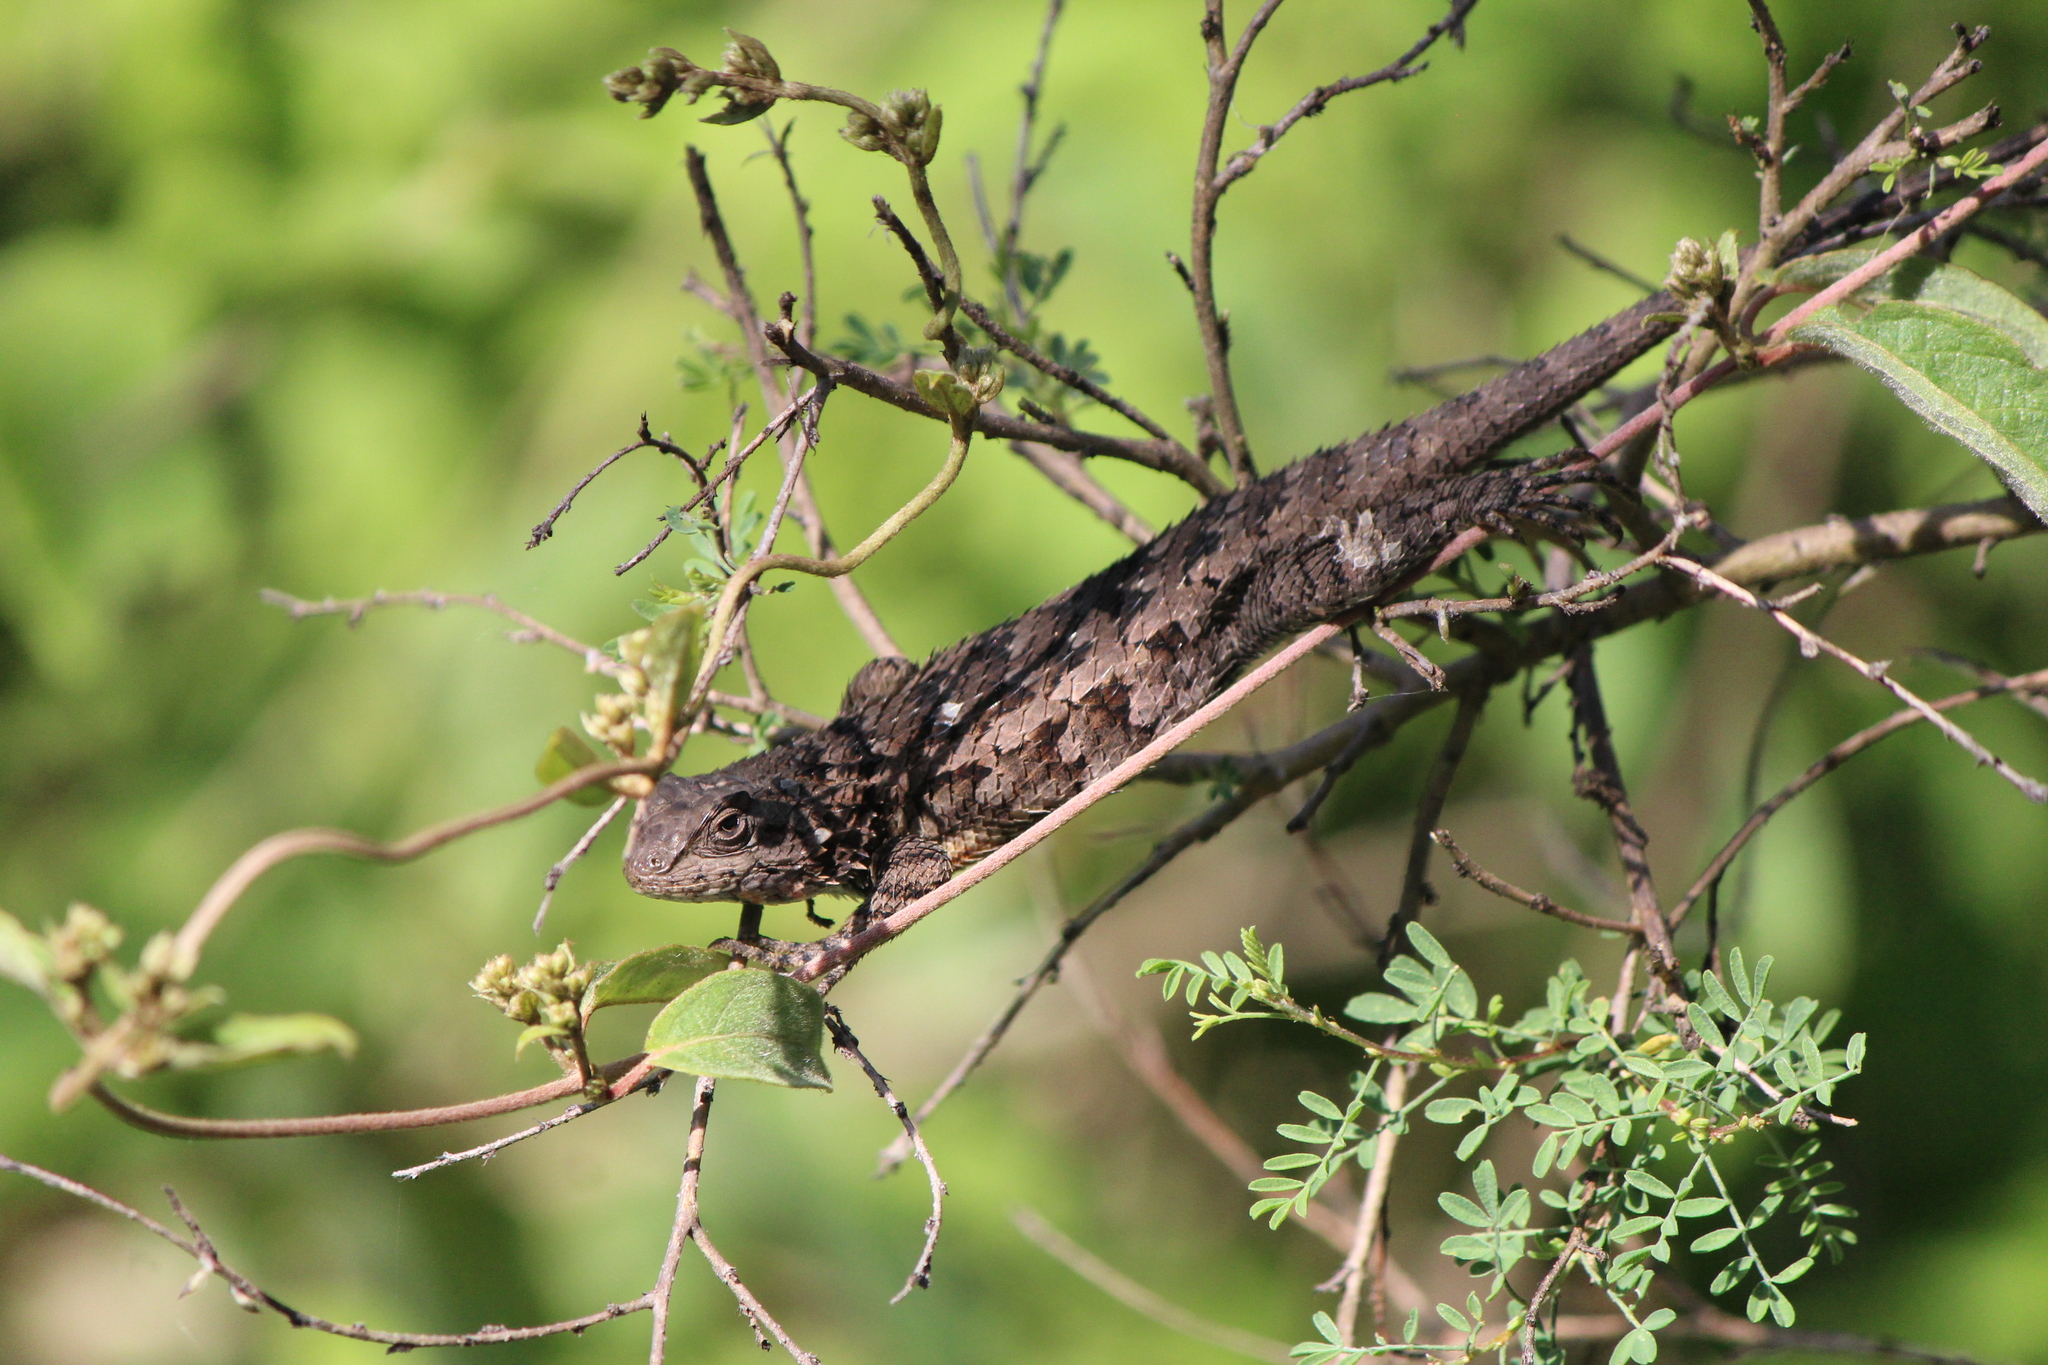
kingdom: Animalia
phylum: Chordata
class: Squamata
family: Phrynosomatidae
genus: Sceloporus
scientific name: Sceloporus spinosus
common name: Blue-spotted spiny lizard [caeruleopunctatus]
